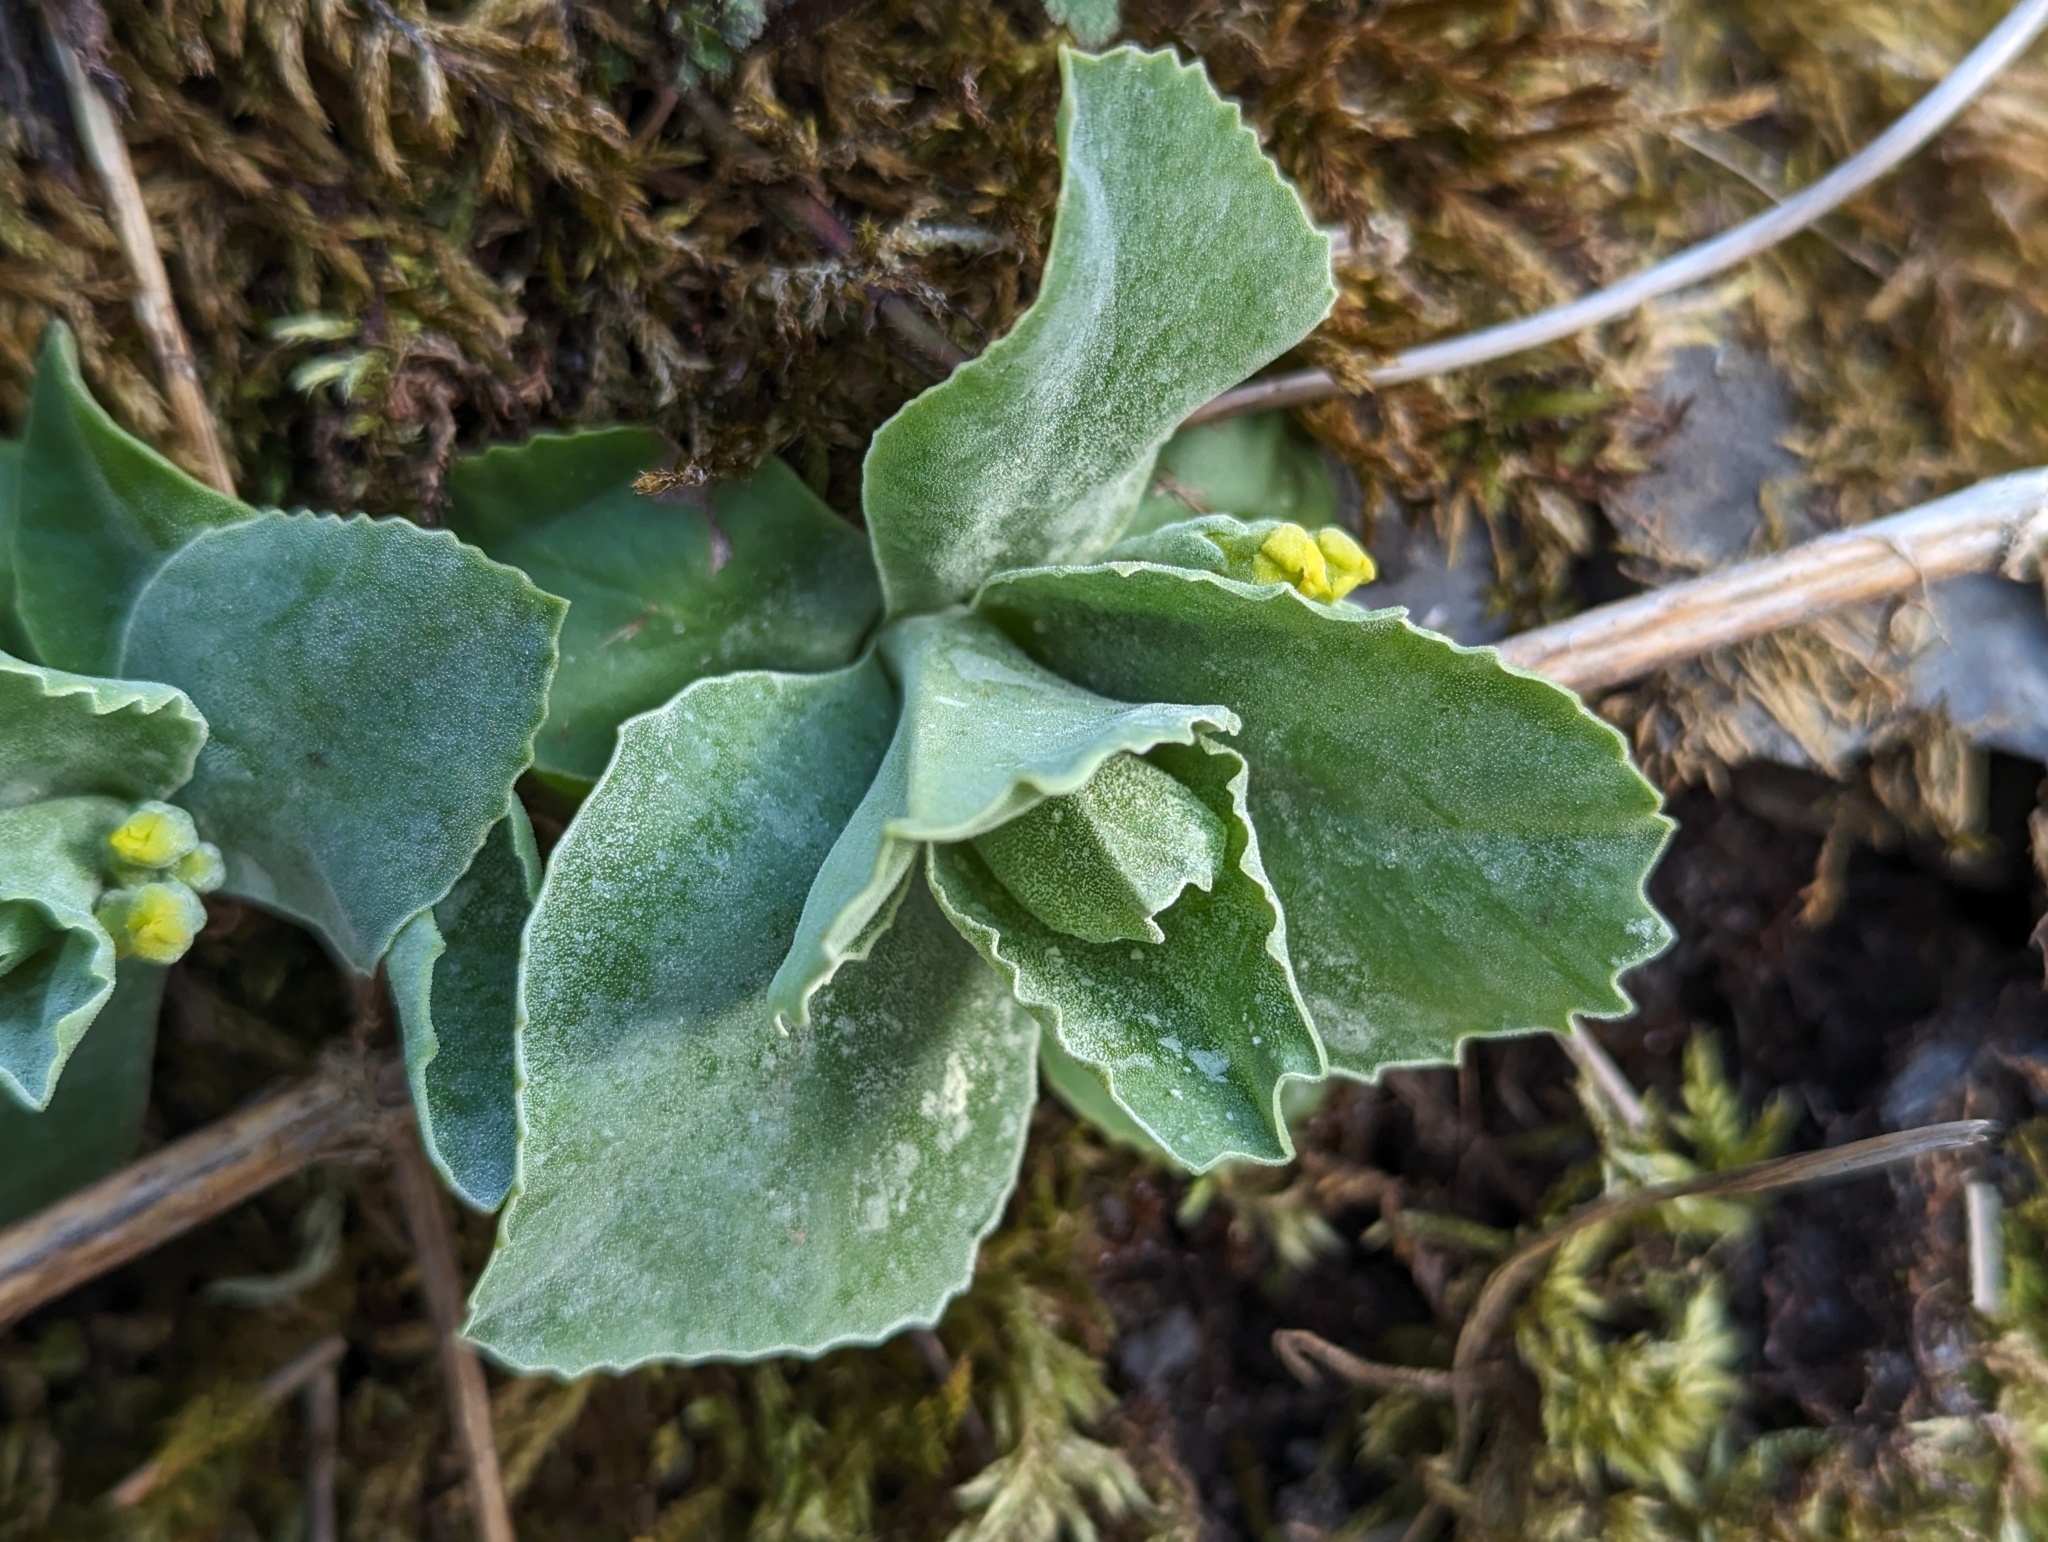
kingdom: Plantae
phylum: Tracheophyta
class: Magnoliopsida
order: Ericales
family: Primulaceae
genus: Primula
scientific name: Primula auricula
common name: Auricula
